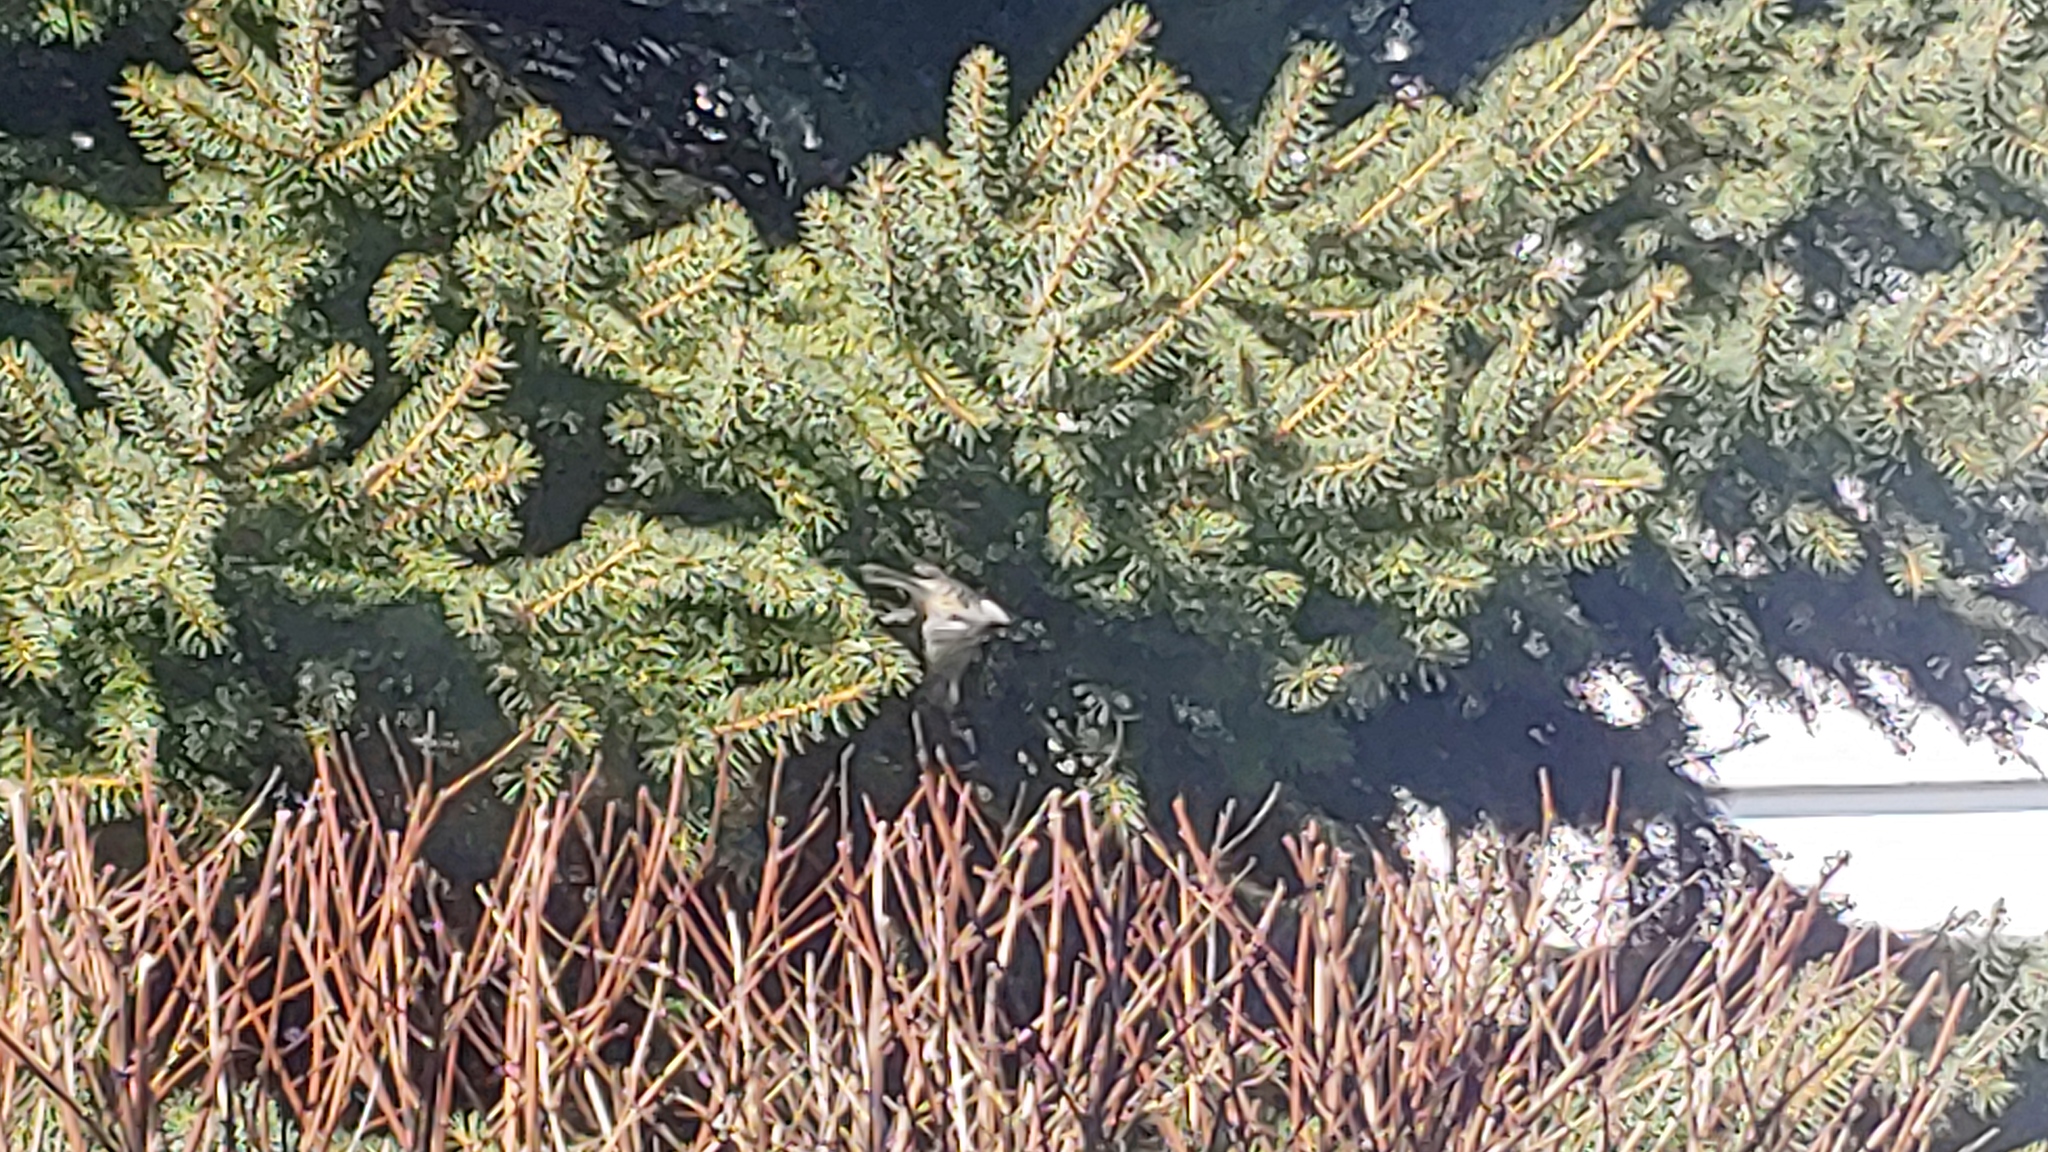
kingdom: Animalia
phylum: Chordata
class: Aves
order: Passeriformes
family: Paridae
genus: Poecile
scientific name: Poecile atricapillus
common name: Black-capped chickadee
